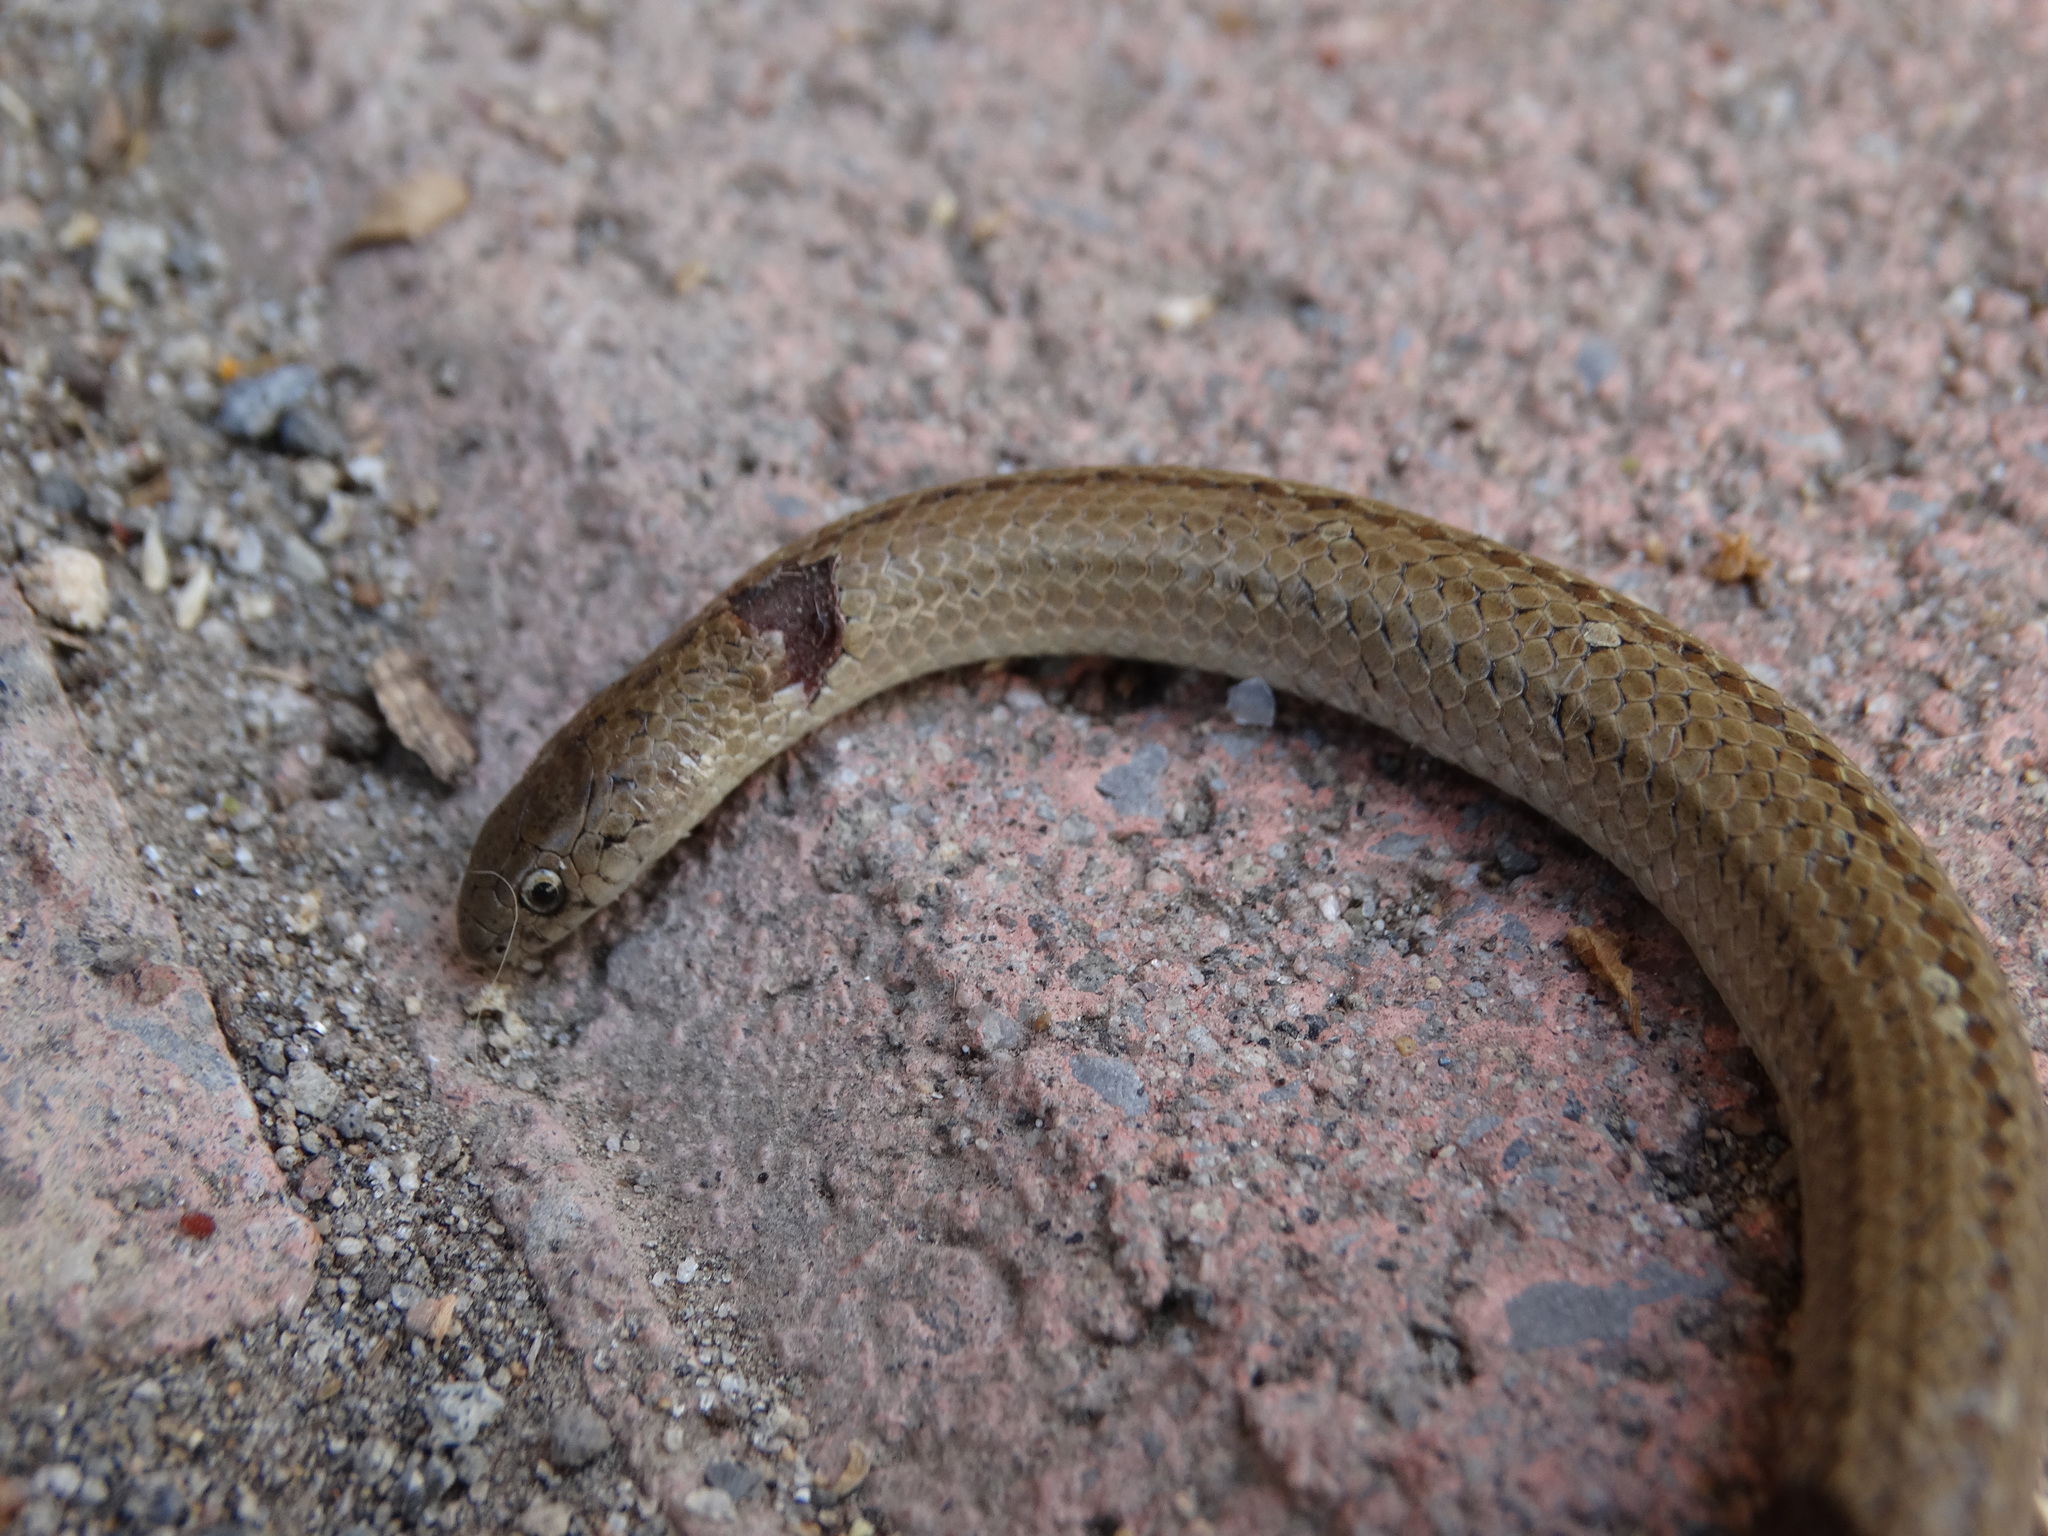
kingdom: Animalia
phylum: Chordata
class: Squamata
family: Colubridae
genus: Conopsis
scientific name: Conopsis lineata
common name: Lined tolucan earthsnake
